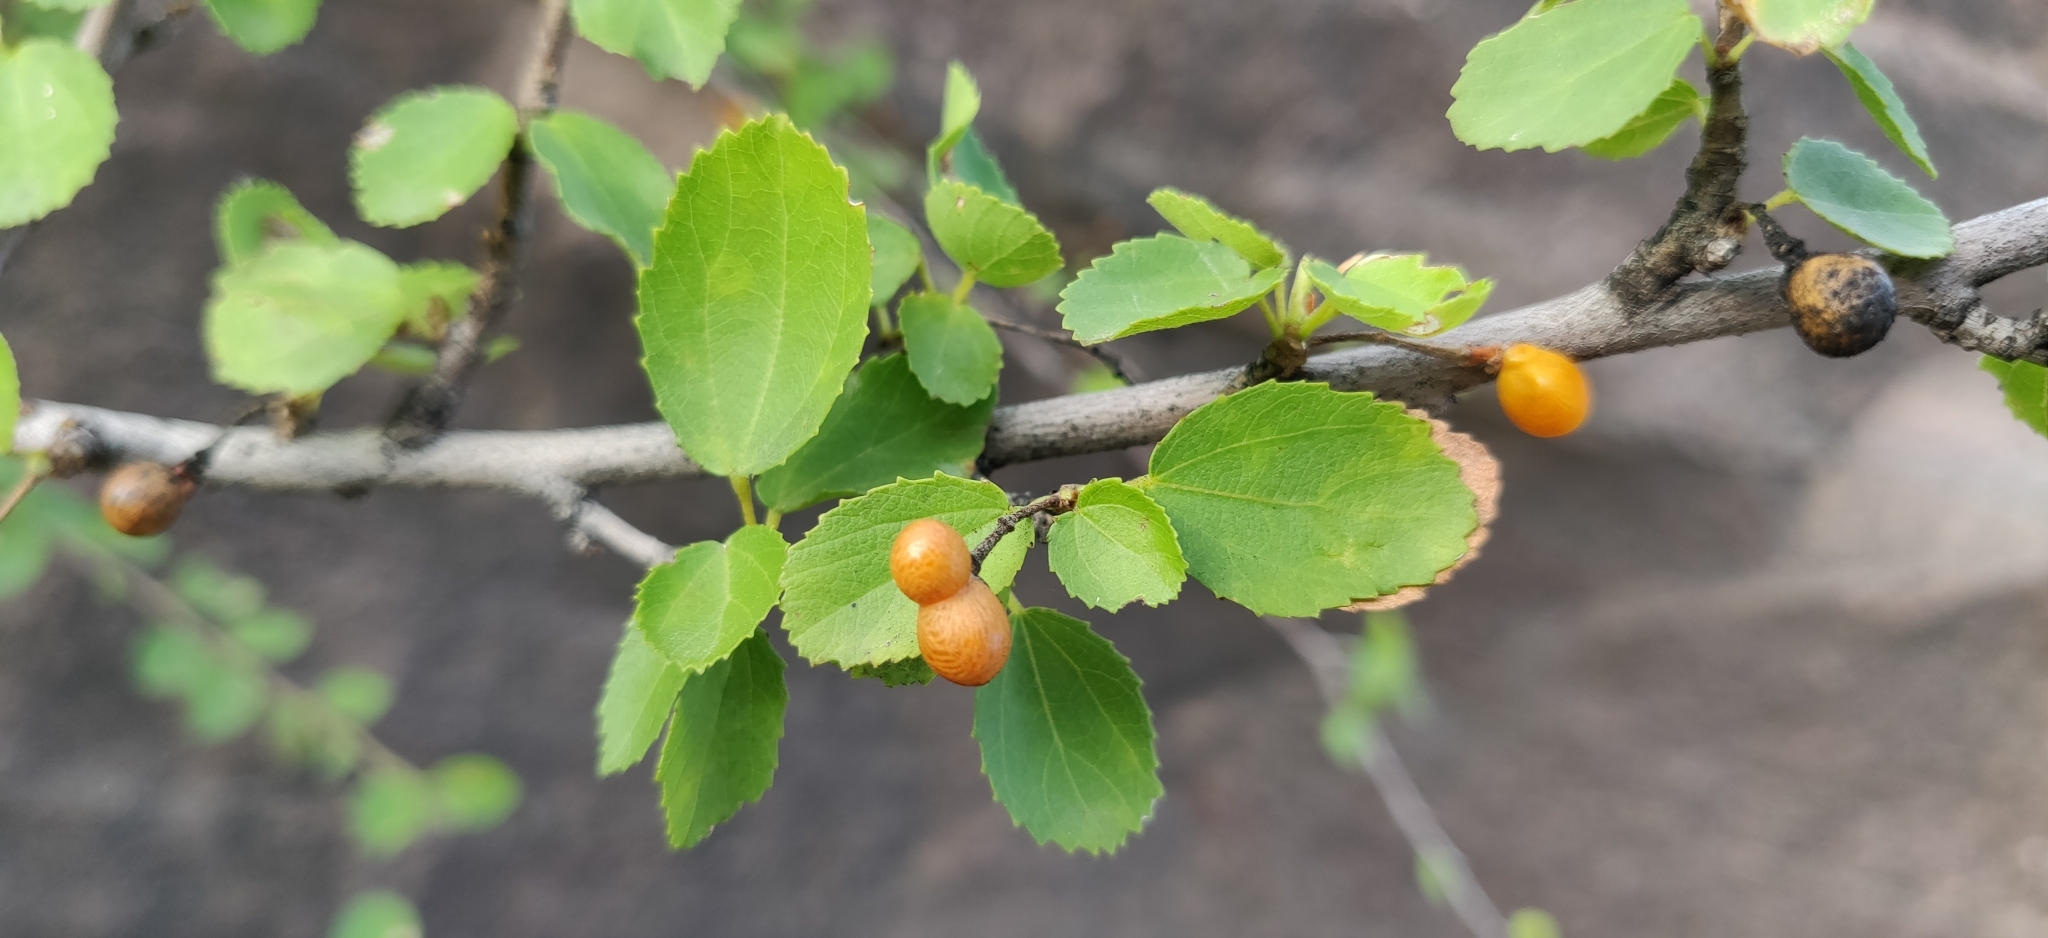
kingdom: Plantae
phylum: Tracheophyta
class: Magnoliopsida
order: Malvales
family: Malvaceae
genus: Grewia
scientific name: Grewia tenax
